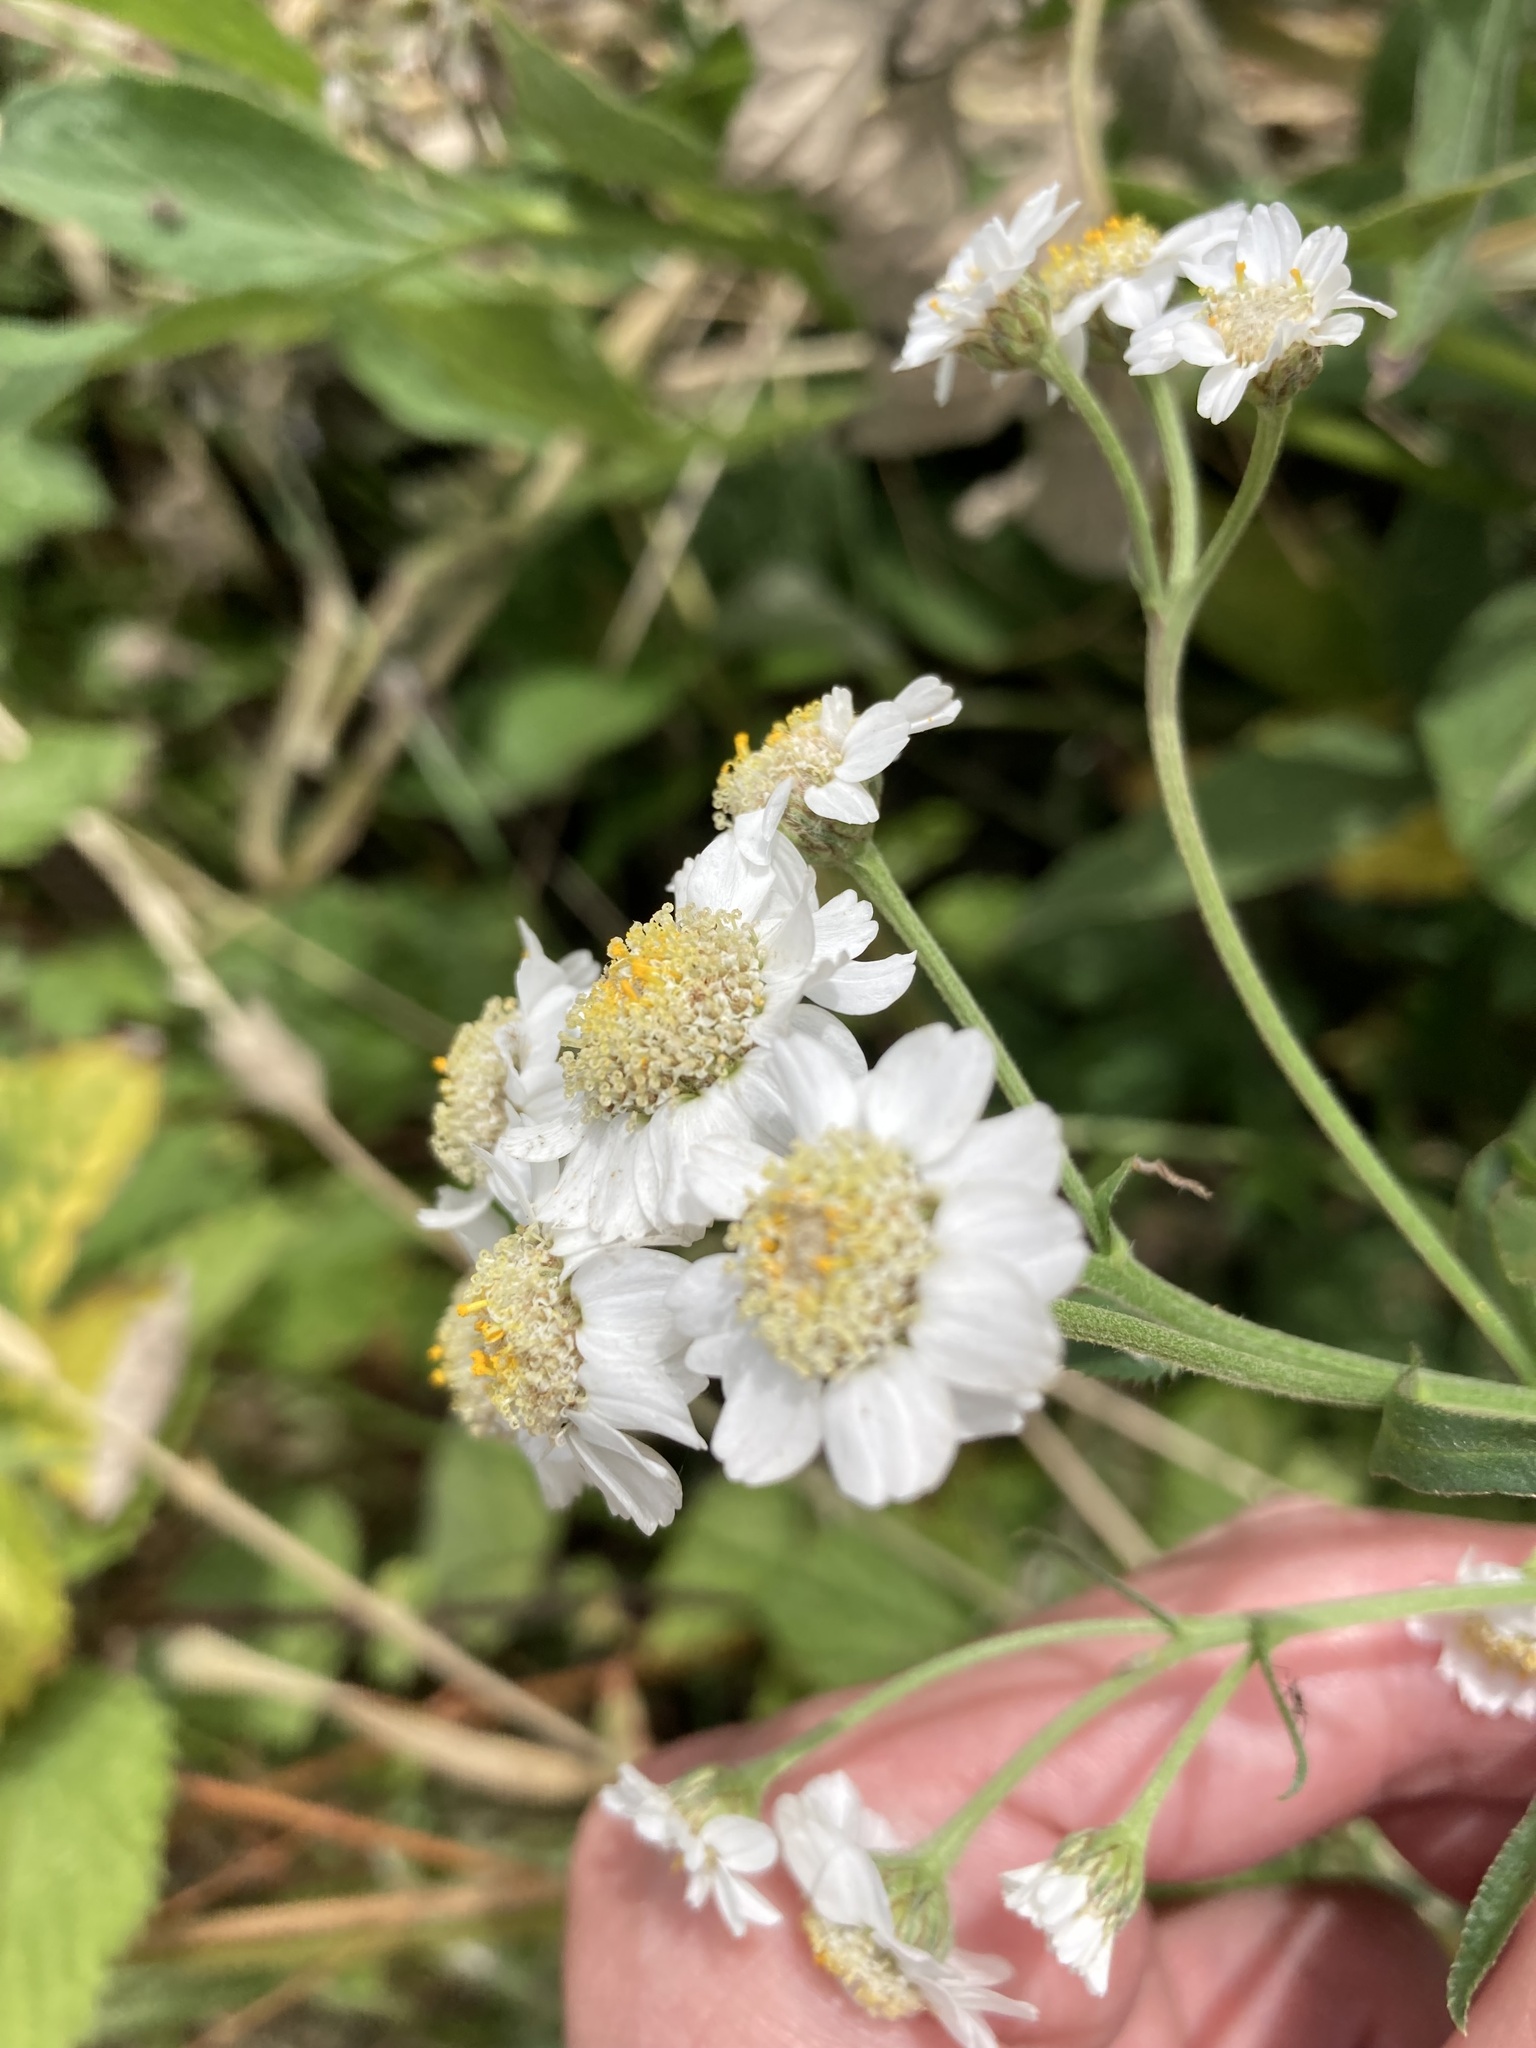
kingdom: Plantae
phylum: Tracheophyta
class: Magnoliopsida
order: Asterales
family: Asteraceae
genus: Achillea
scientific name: Achillea ptarmica
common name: Sneezeweed
